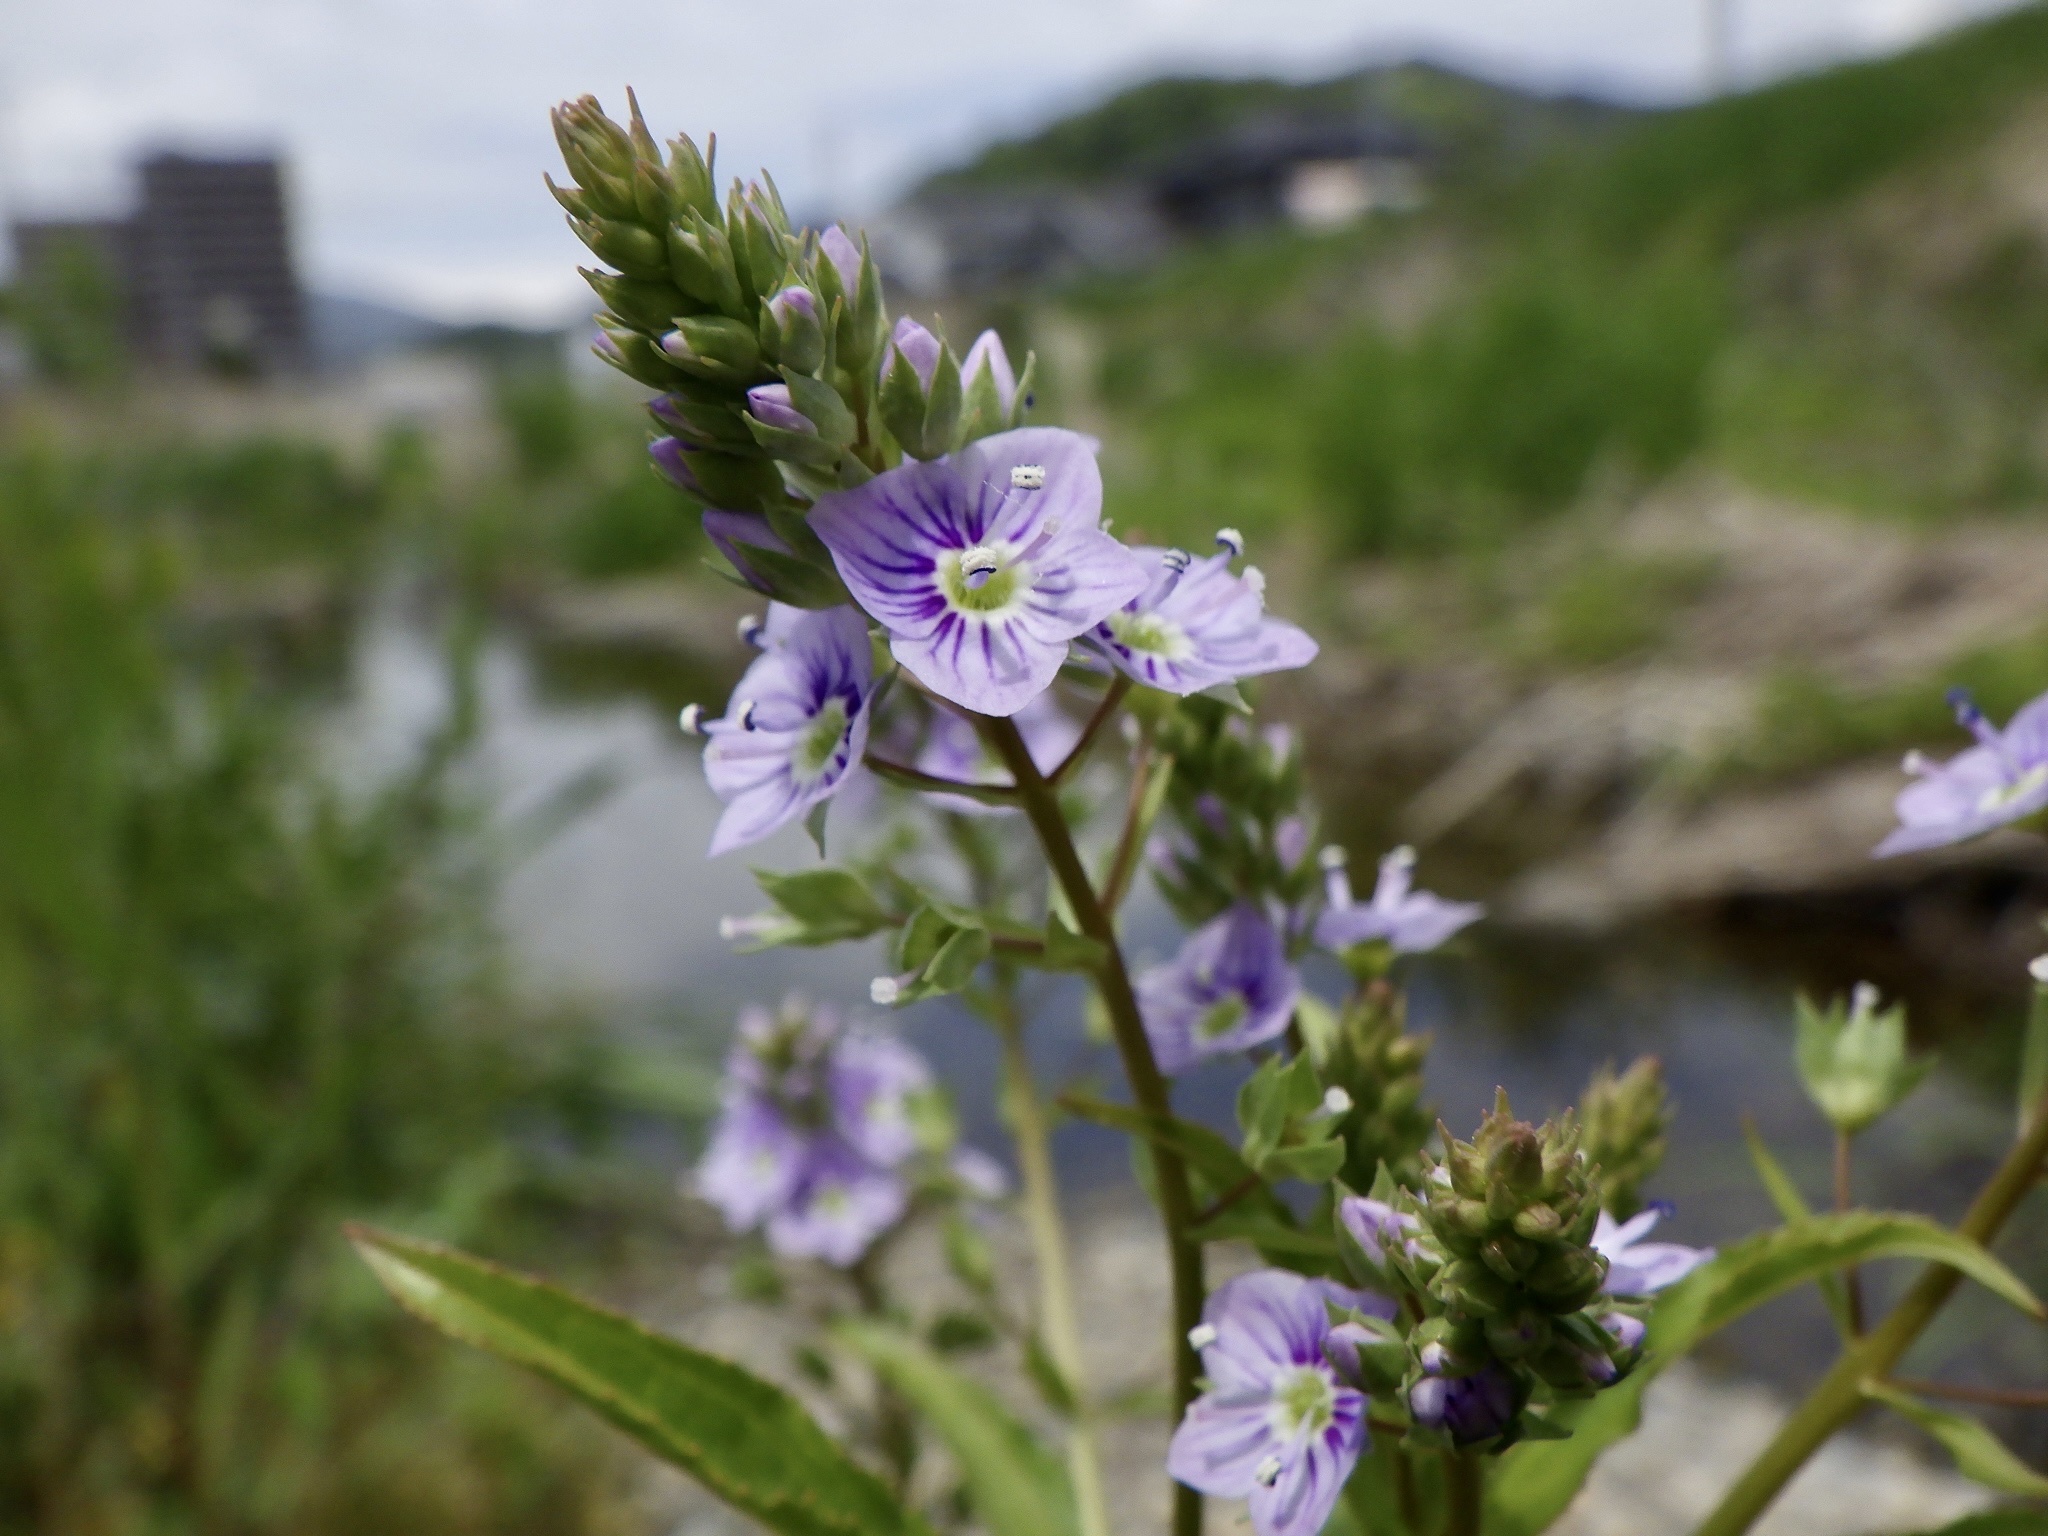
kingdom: Plantae
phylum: Tracheophyta
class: Magnoliopsida
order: Lamiales
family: Plantaginaceae
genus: Veronica
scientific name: Veronica anagallis-aquatica
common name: Water speedwell
